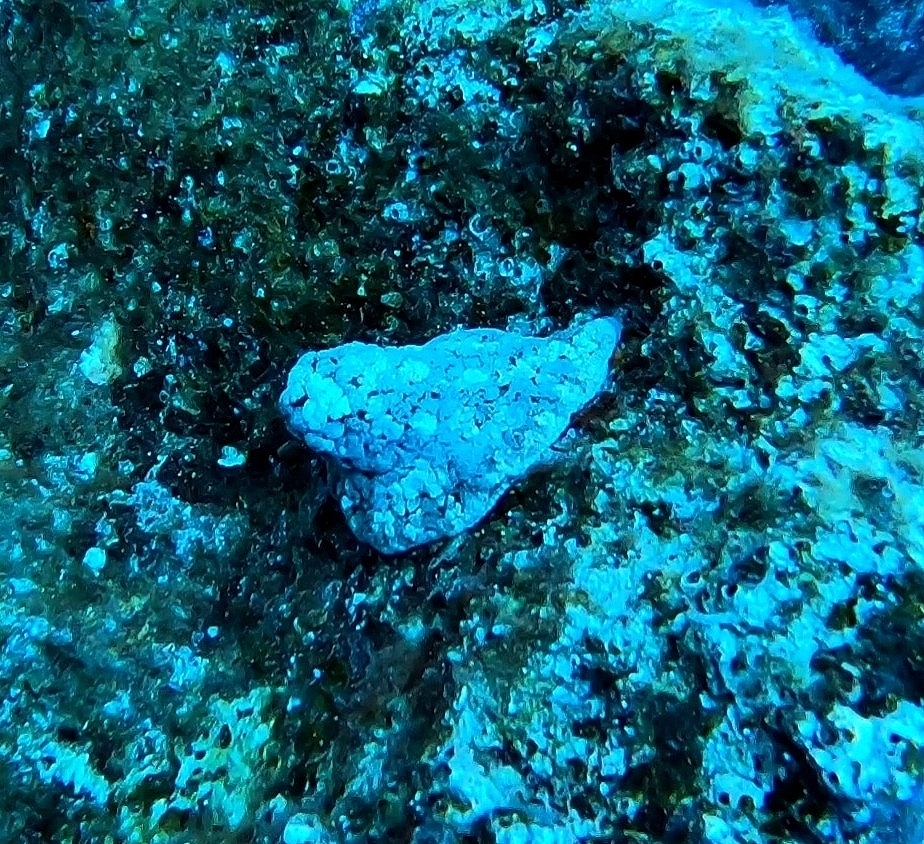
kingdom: Animalia
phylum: Cnidaria
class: Anthozoa
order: Actiniaria
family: Aliciidae
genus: Alicia
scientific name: Alicia mirabilis
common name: Berried anemone
